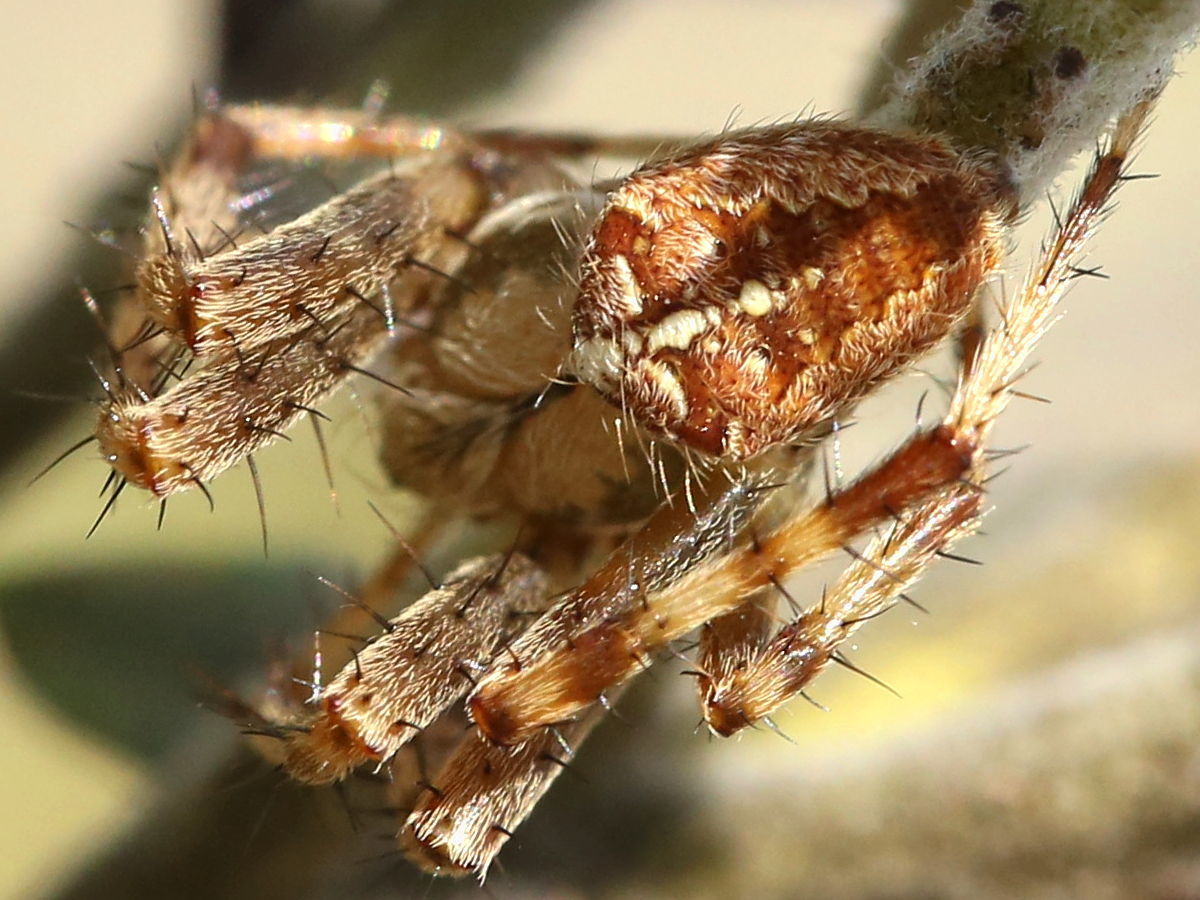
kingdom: Animalia
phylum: Arthropoda
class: Arachnida
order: Araneae
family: Araneidae
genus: Araneus
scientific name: Araneus diadematus
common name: Cross orbweaver
